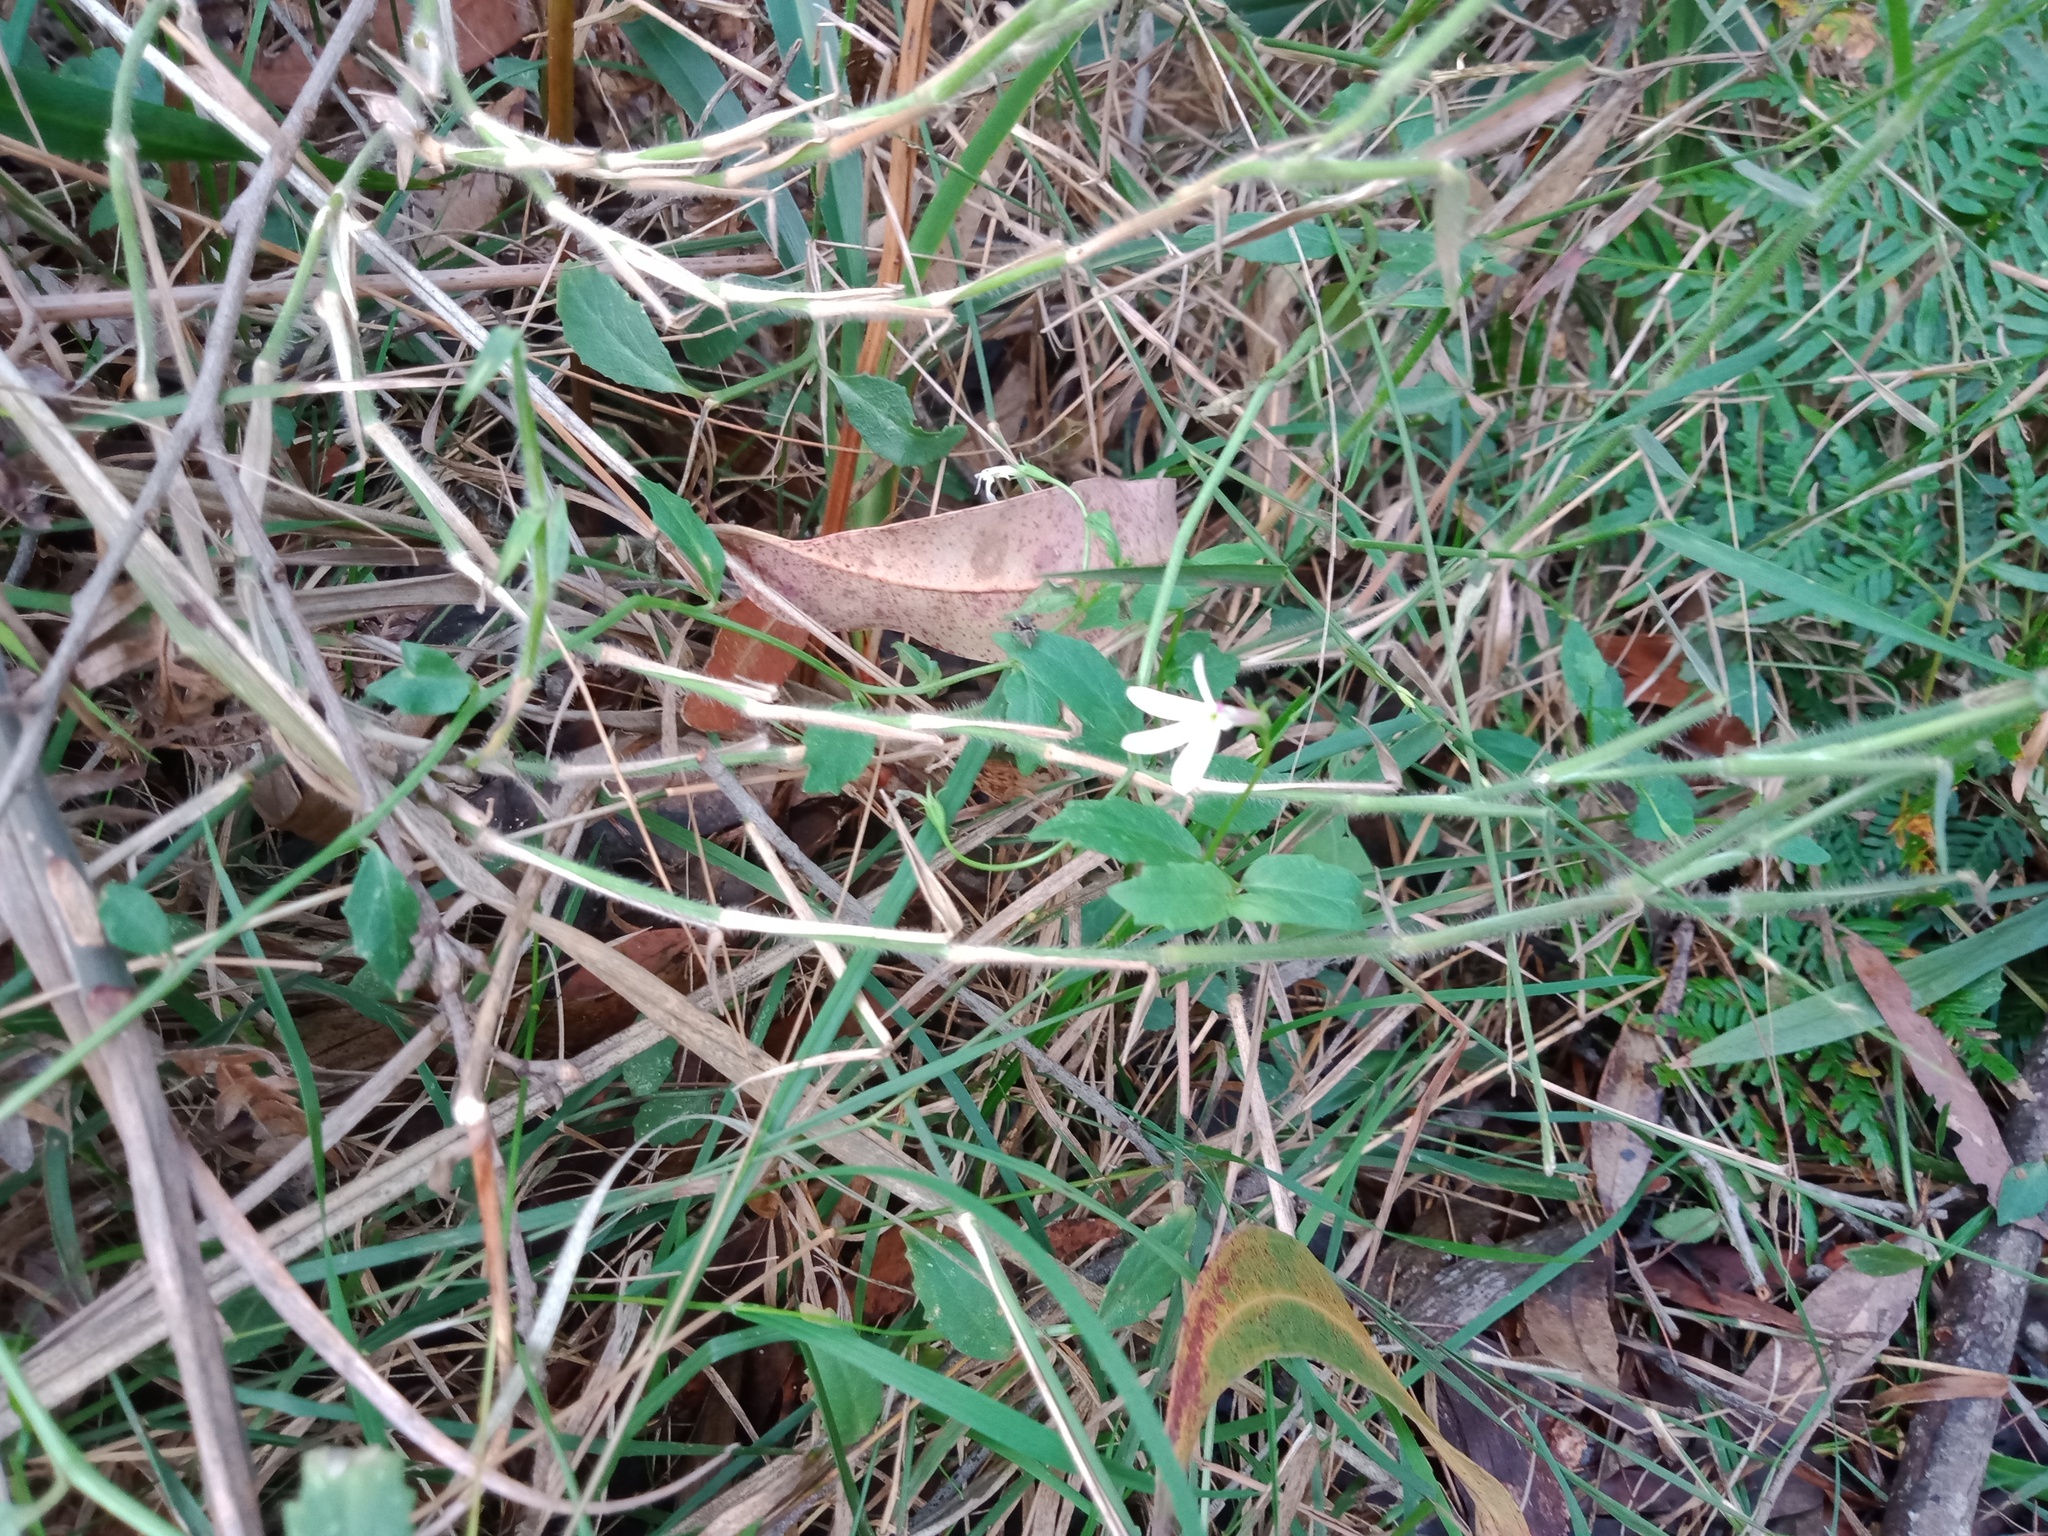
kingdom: Plantae
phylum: Tracheophyta
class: Magnoliopsida
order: Asterales
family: Campanulaceae
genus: Lobelia
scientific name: Lobelia purpurascens
